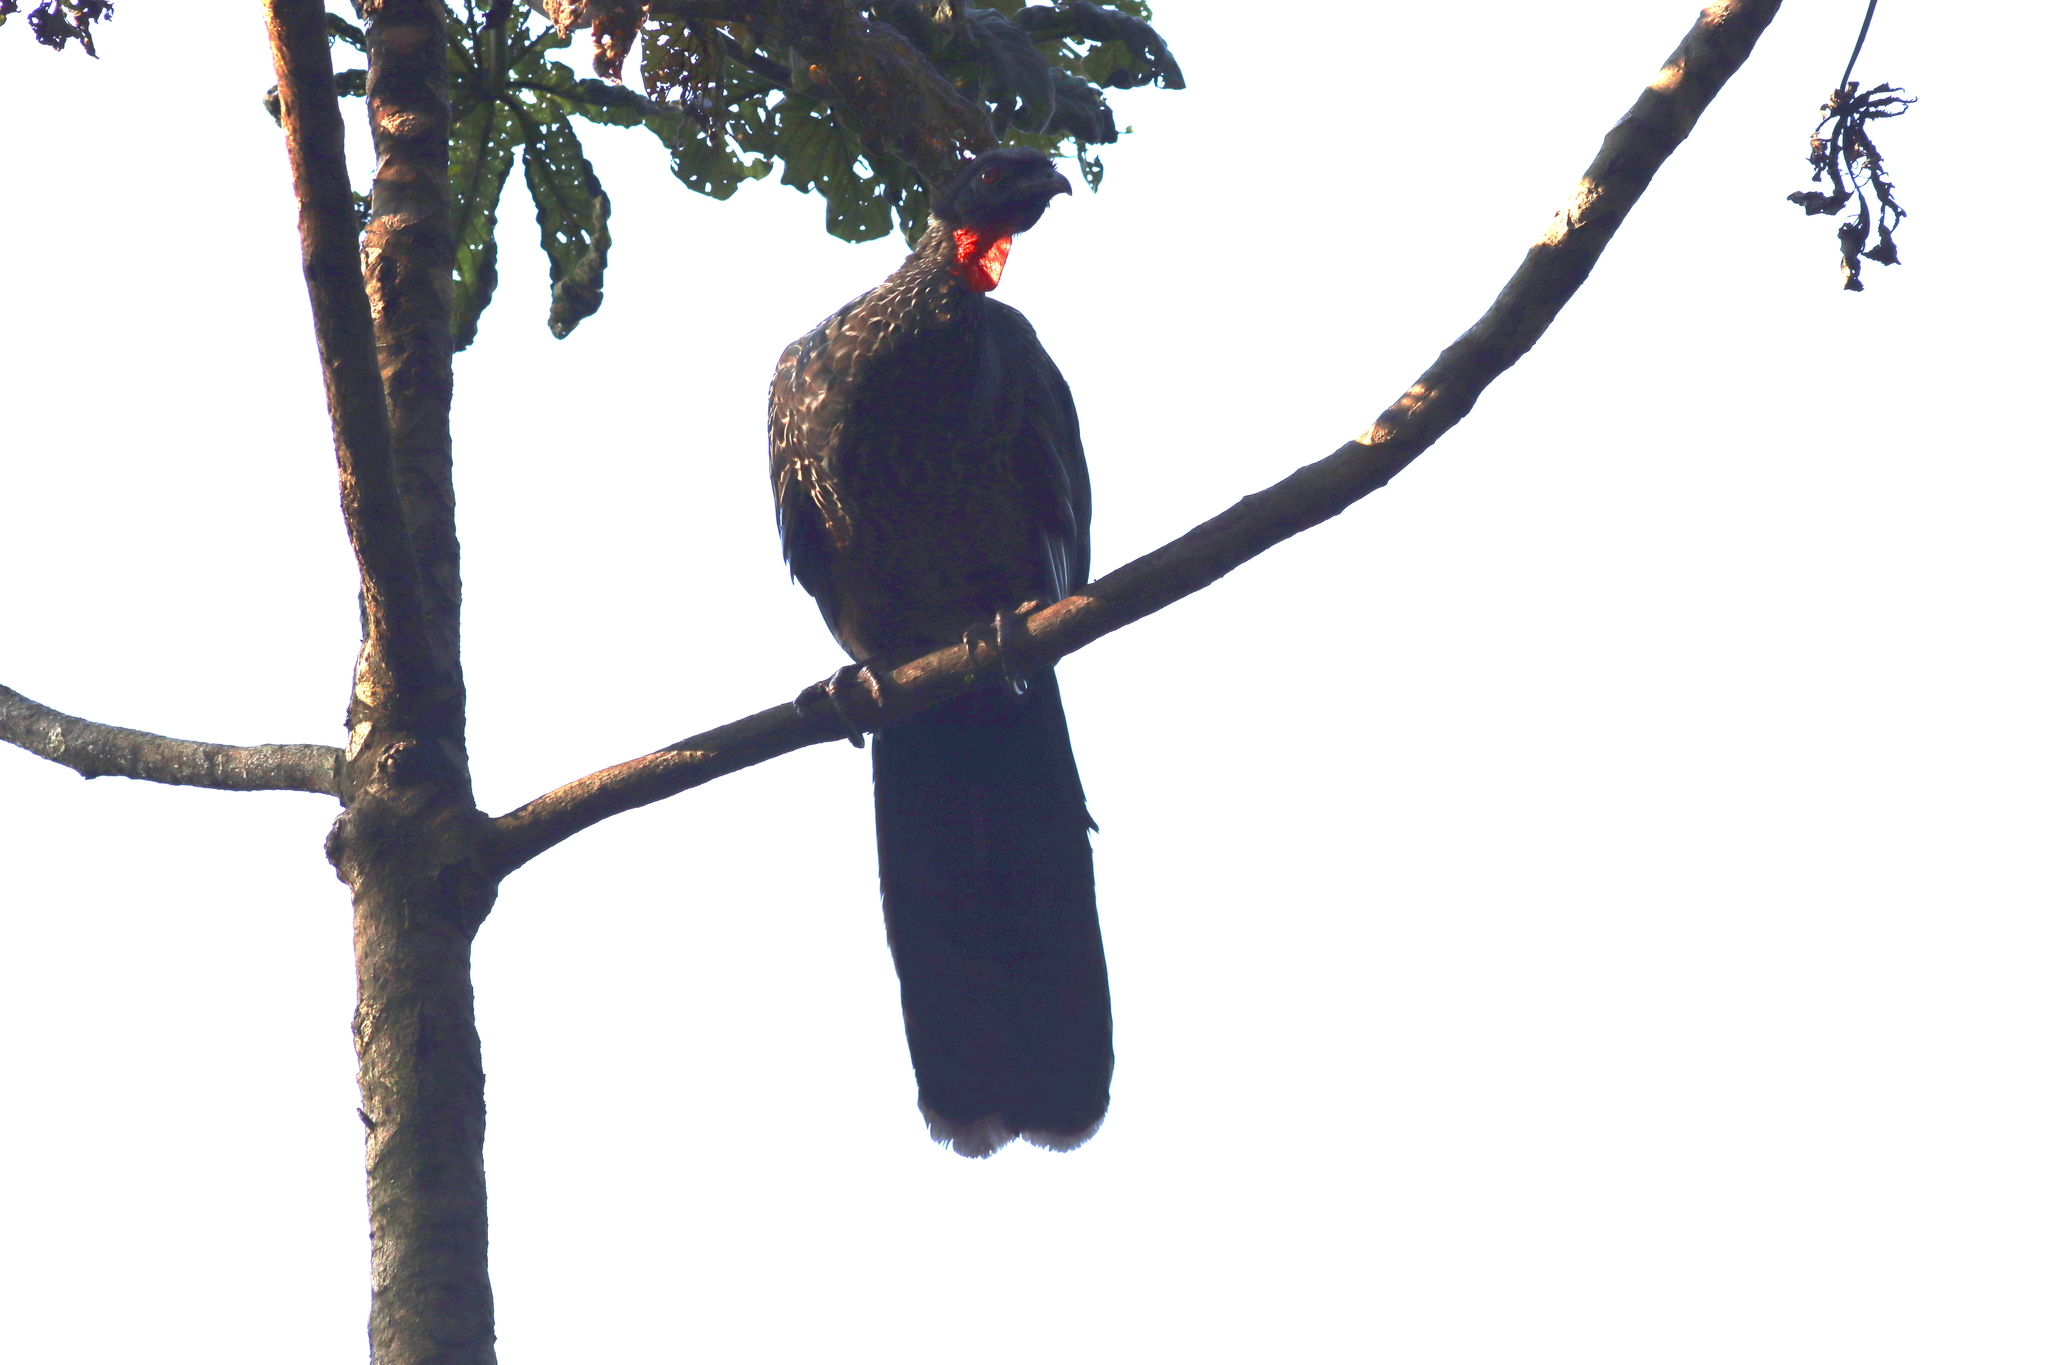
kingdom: Animalia
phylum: Chordata
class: Aves
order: Galliformes
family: Cracidae
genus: Penelope
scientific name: Penelope obscura
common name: Dusky-legged guan
